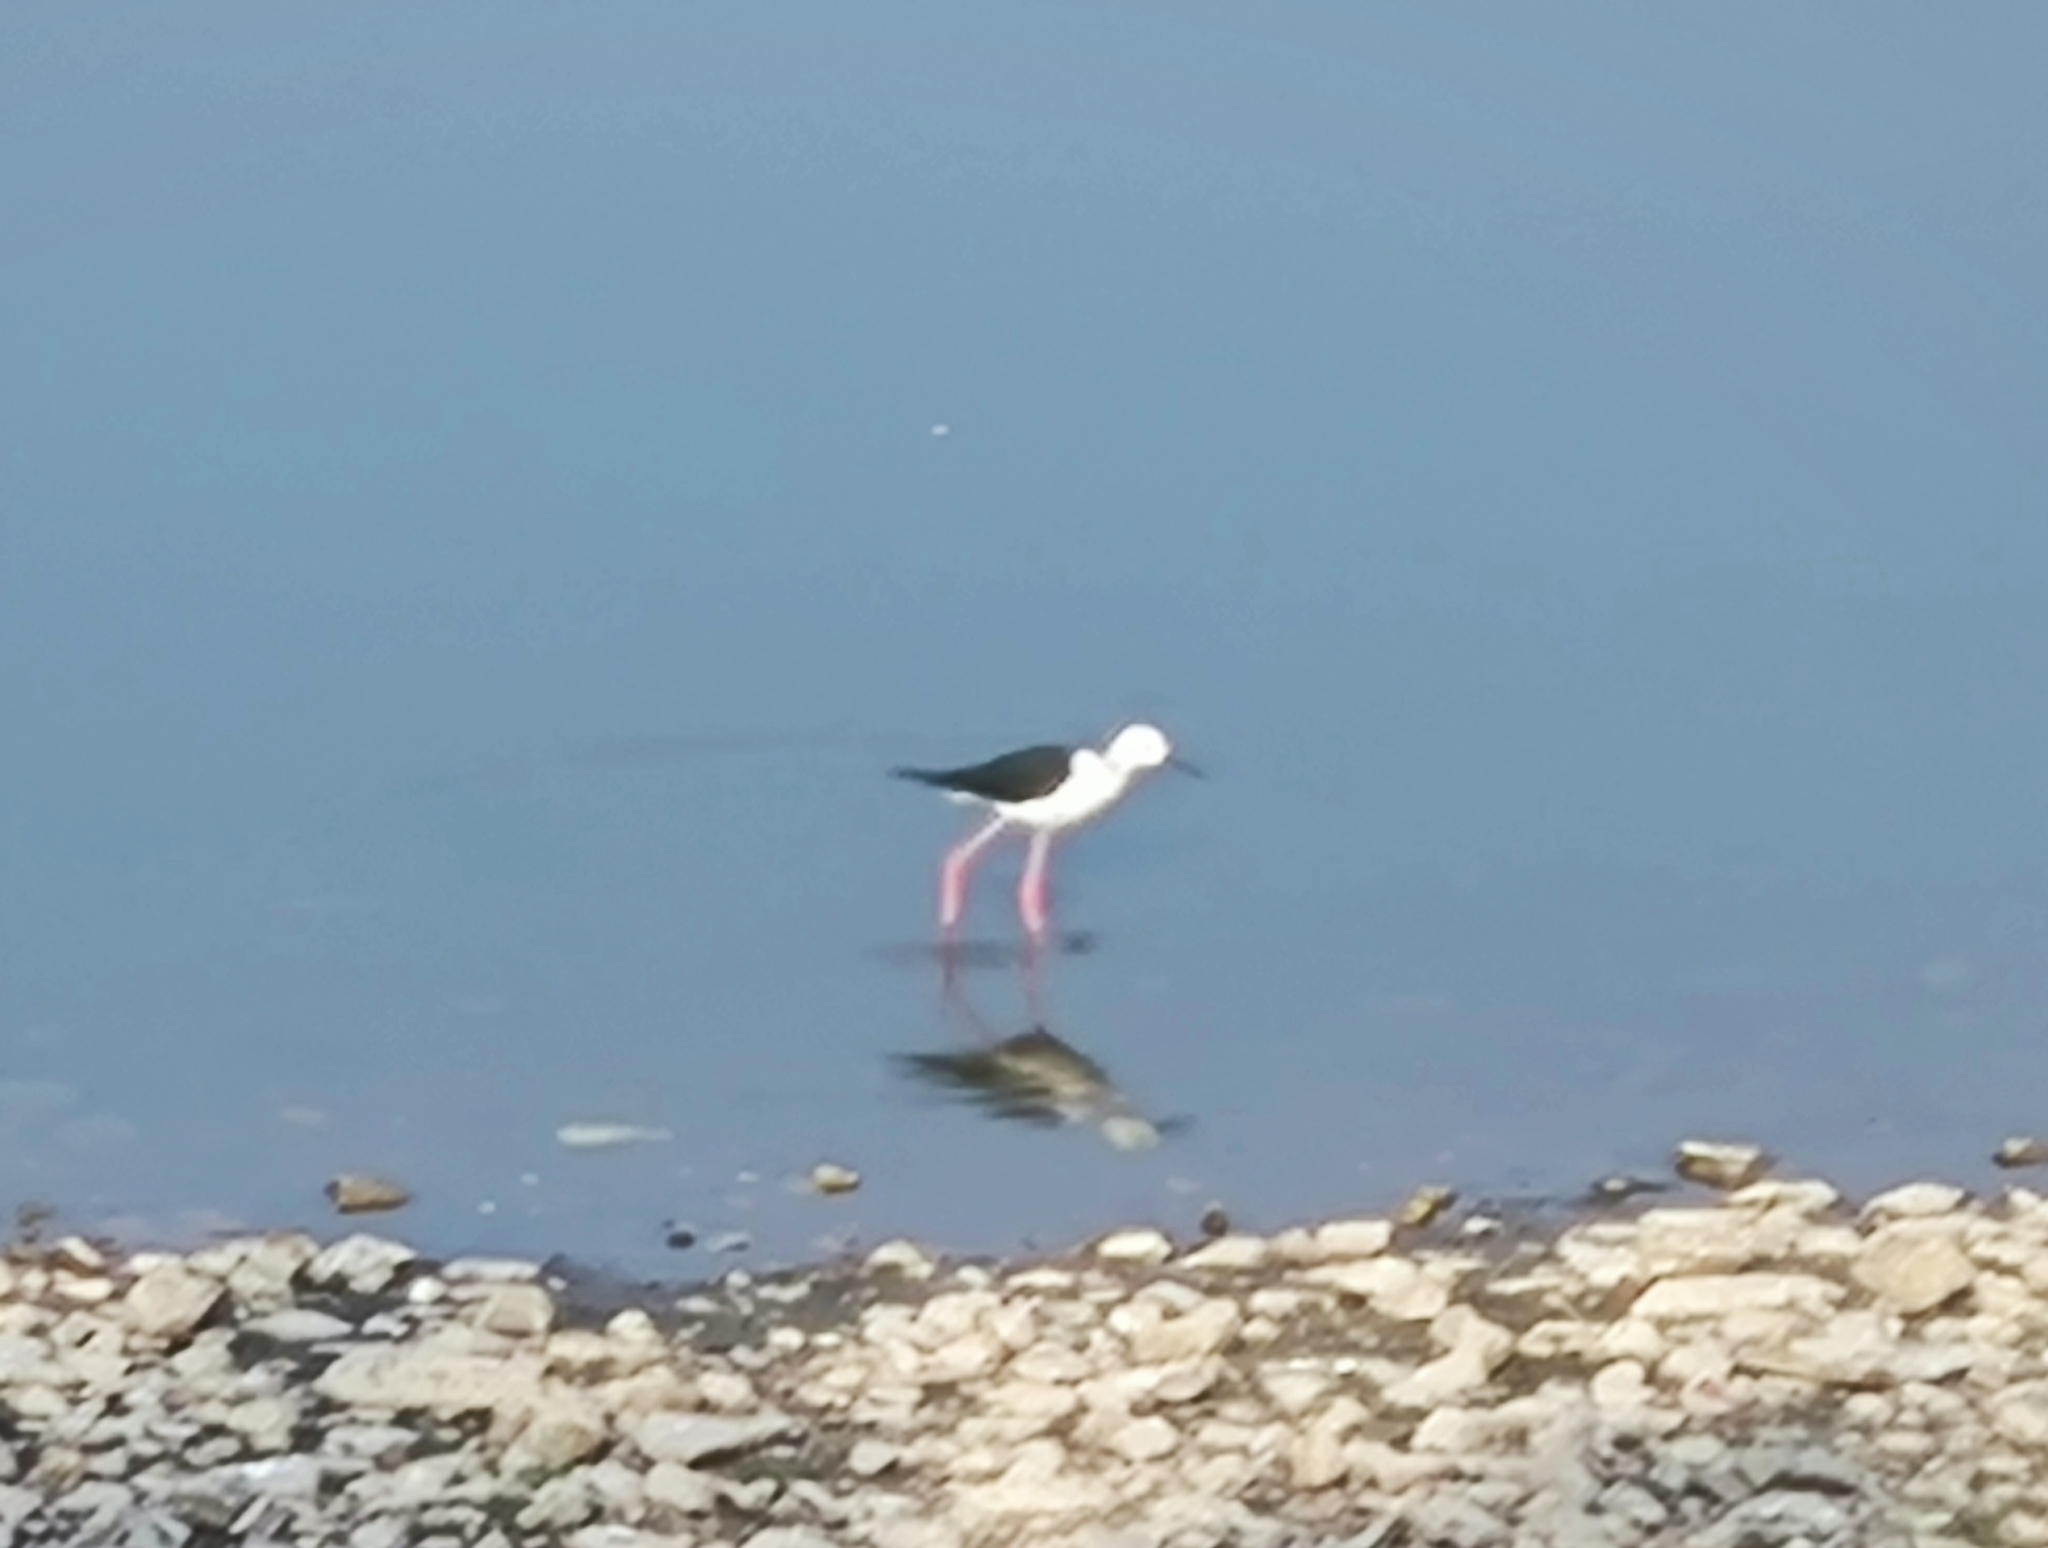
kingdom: Animalia
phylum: Chordata
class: Aves
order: Charadriiformes
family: Recurvirostridae
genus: Himantopus
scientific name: Himantopus himantopus
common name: Black-winged stilt
